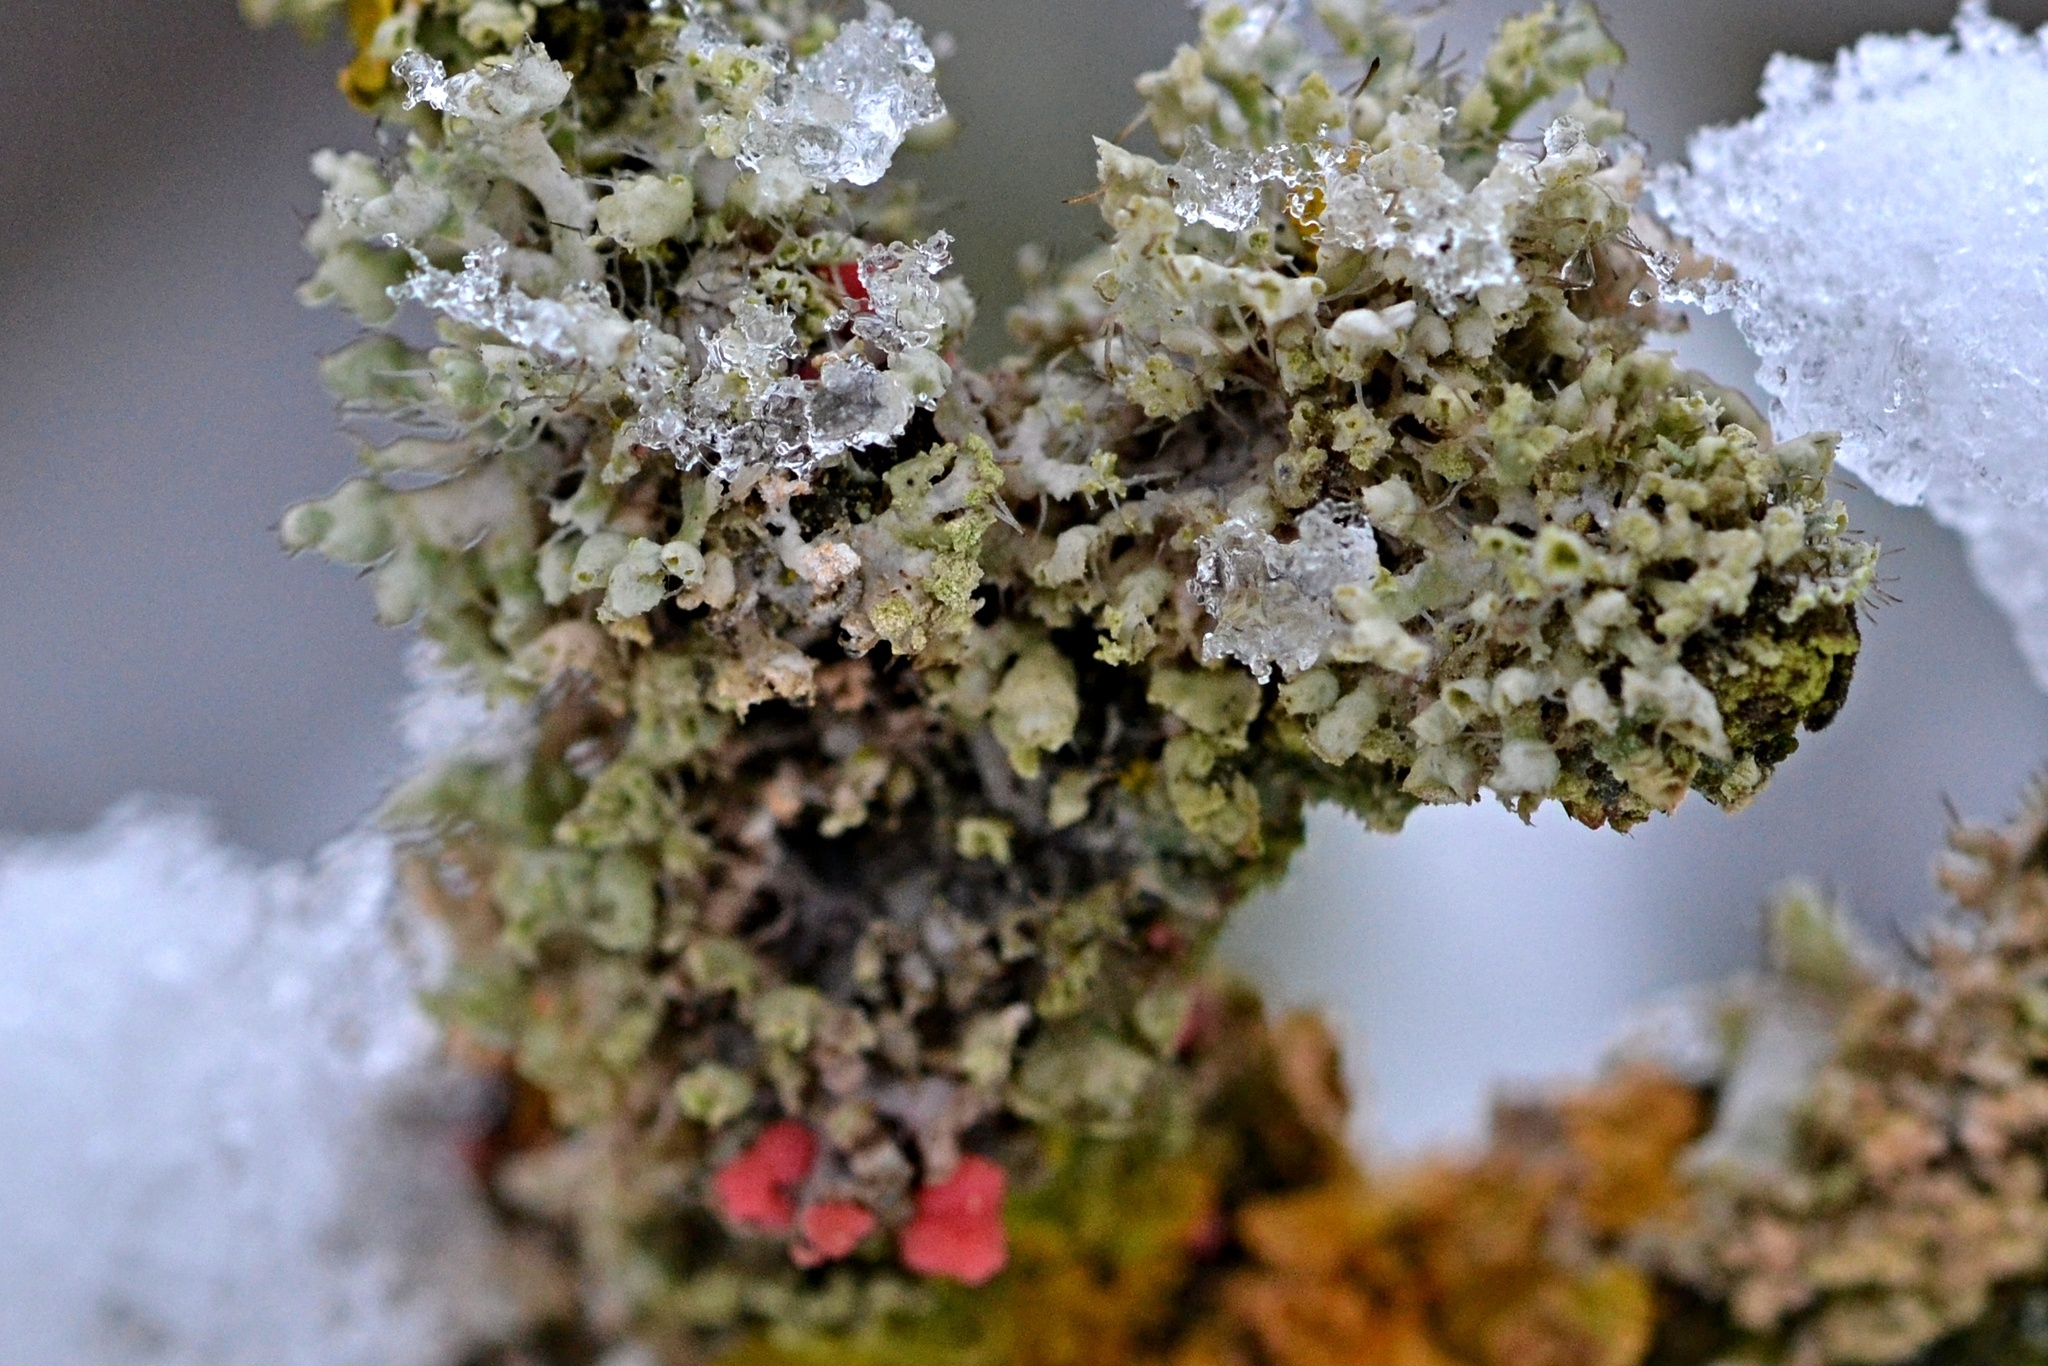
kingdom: Fungi
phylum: Ascomycota
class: Sordariomycetes
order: Hypocreales
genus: Illosporiopsis
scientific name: Illosporiopsis christiansenii
